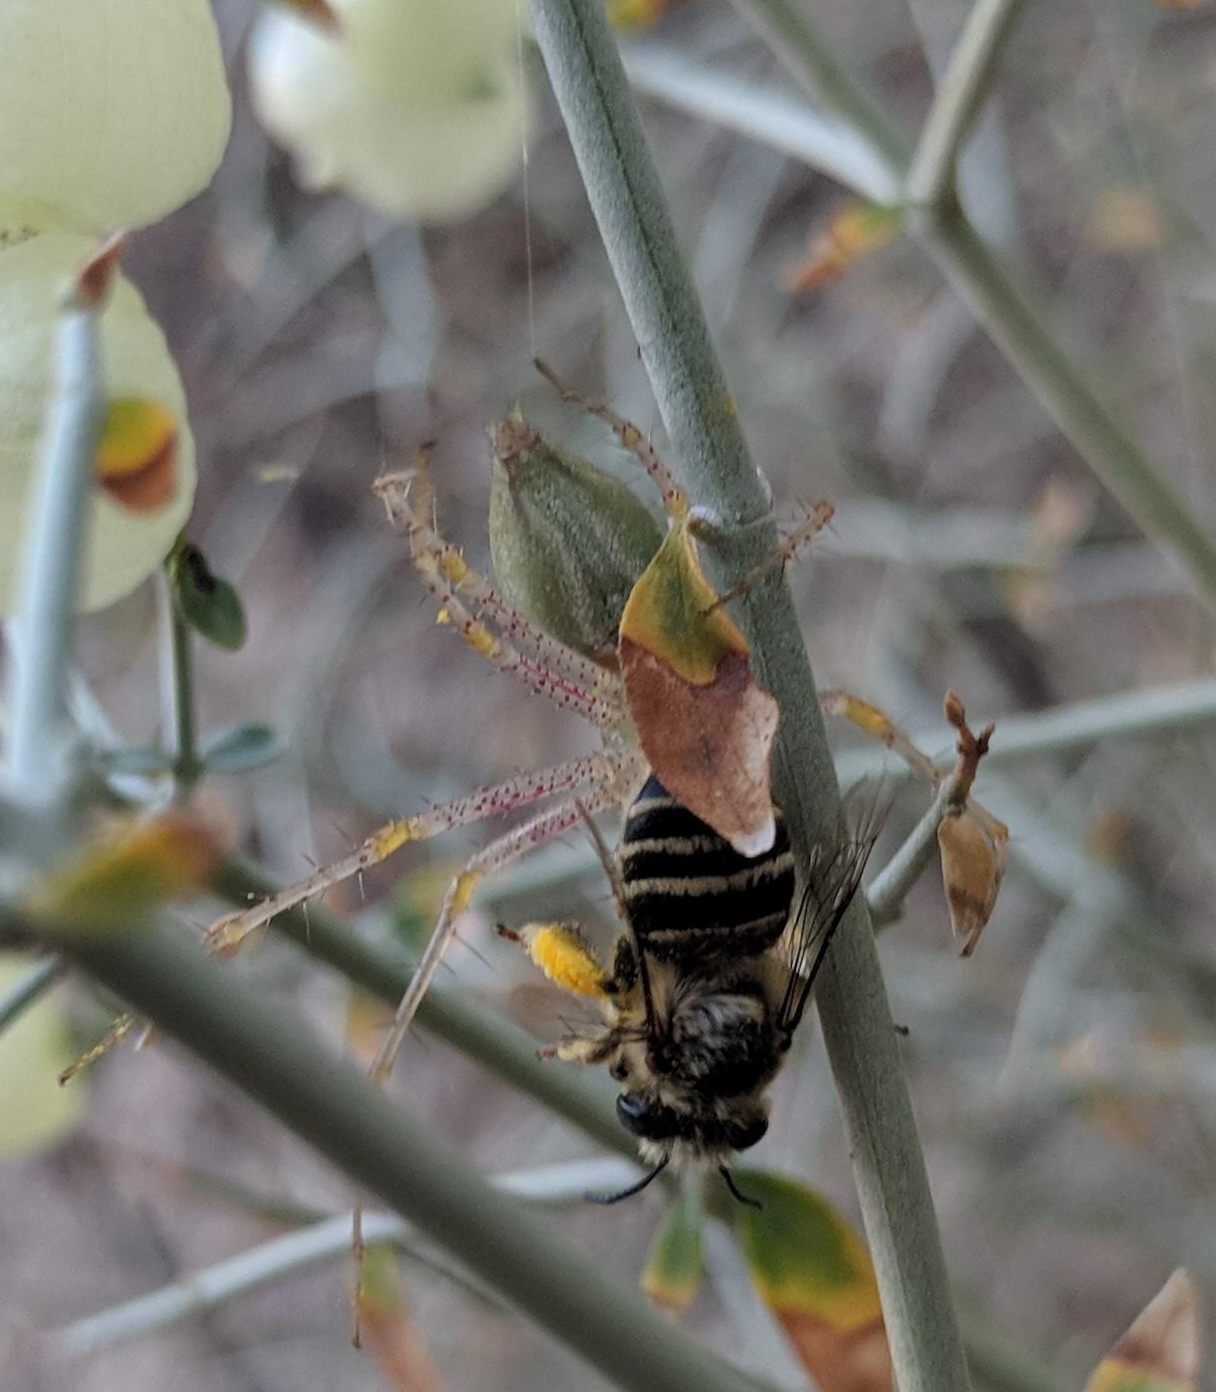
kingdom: Animalia
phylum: Arthropoda
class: Insecta
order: Hymenoptera
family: Apidae
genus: Anthophora
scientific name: Anthophora urbana
